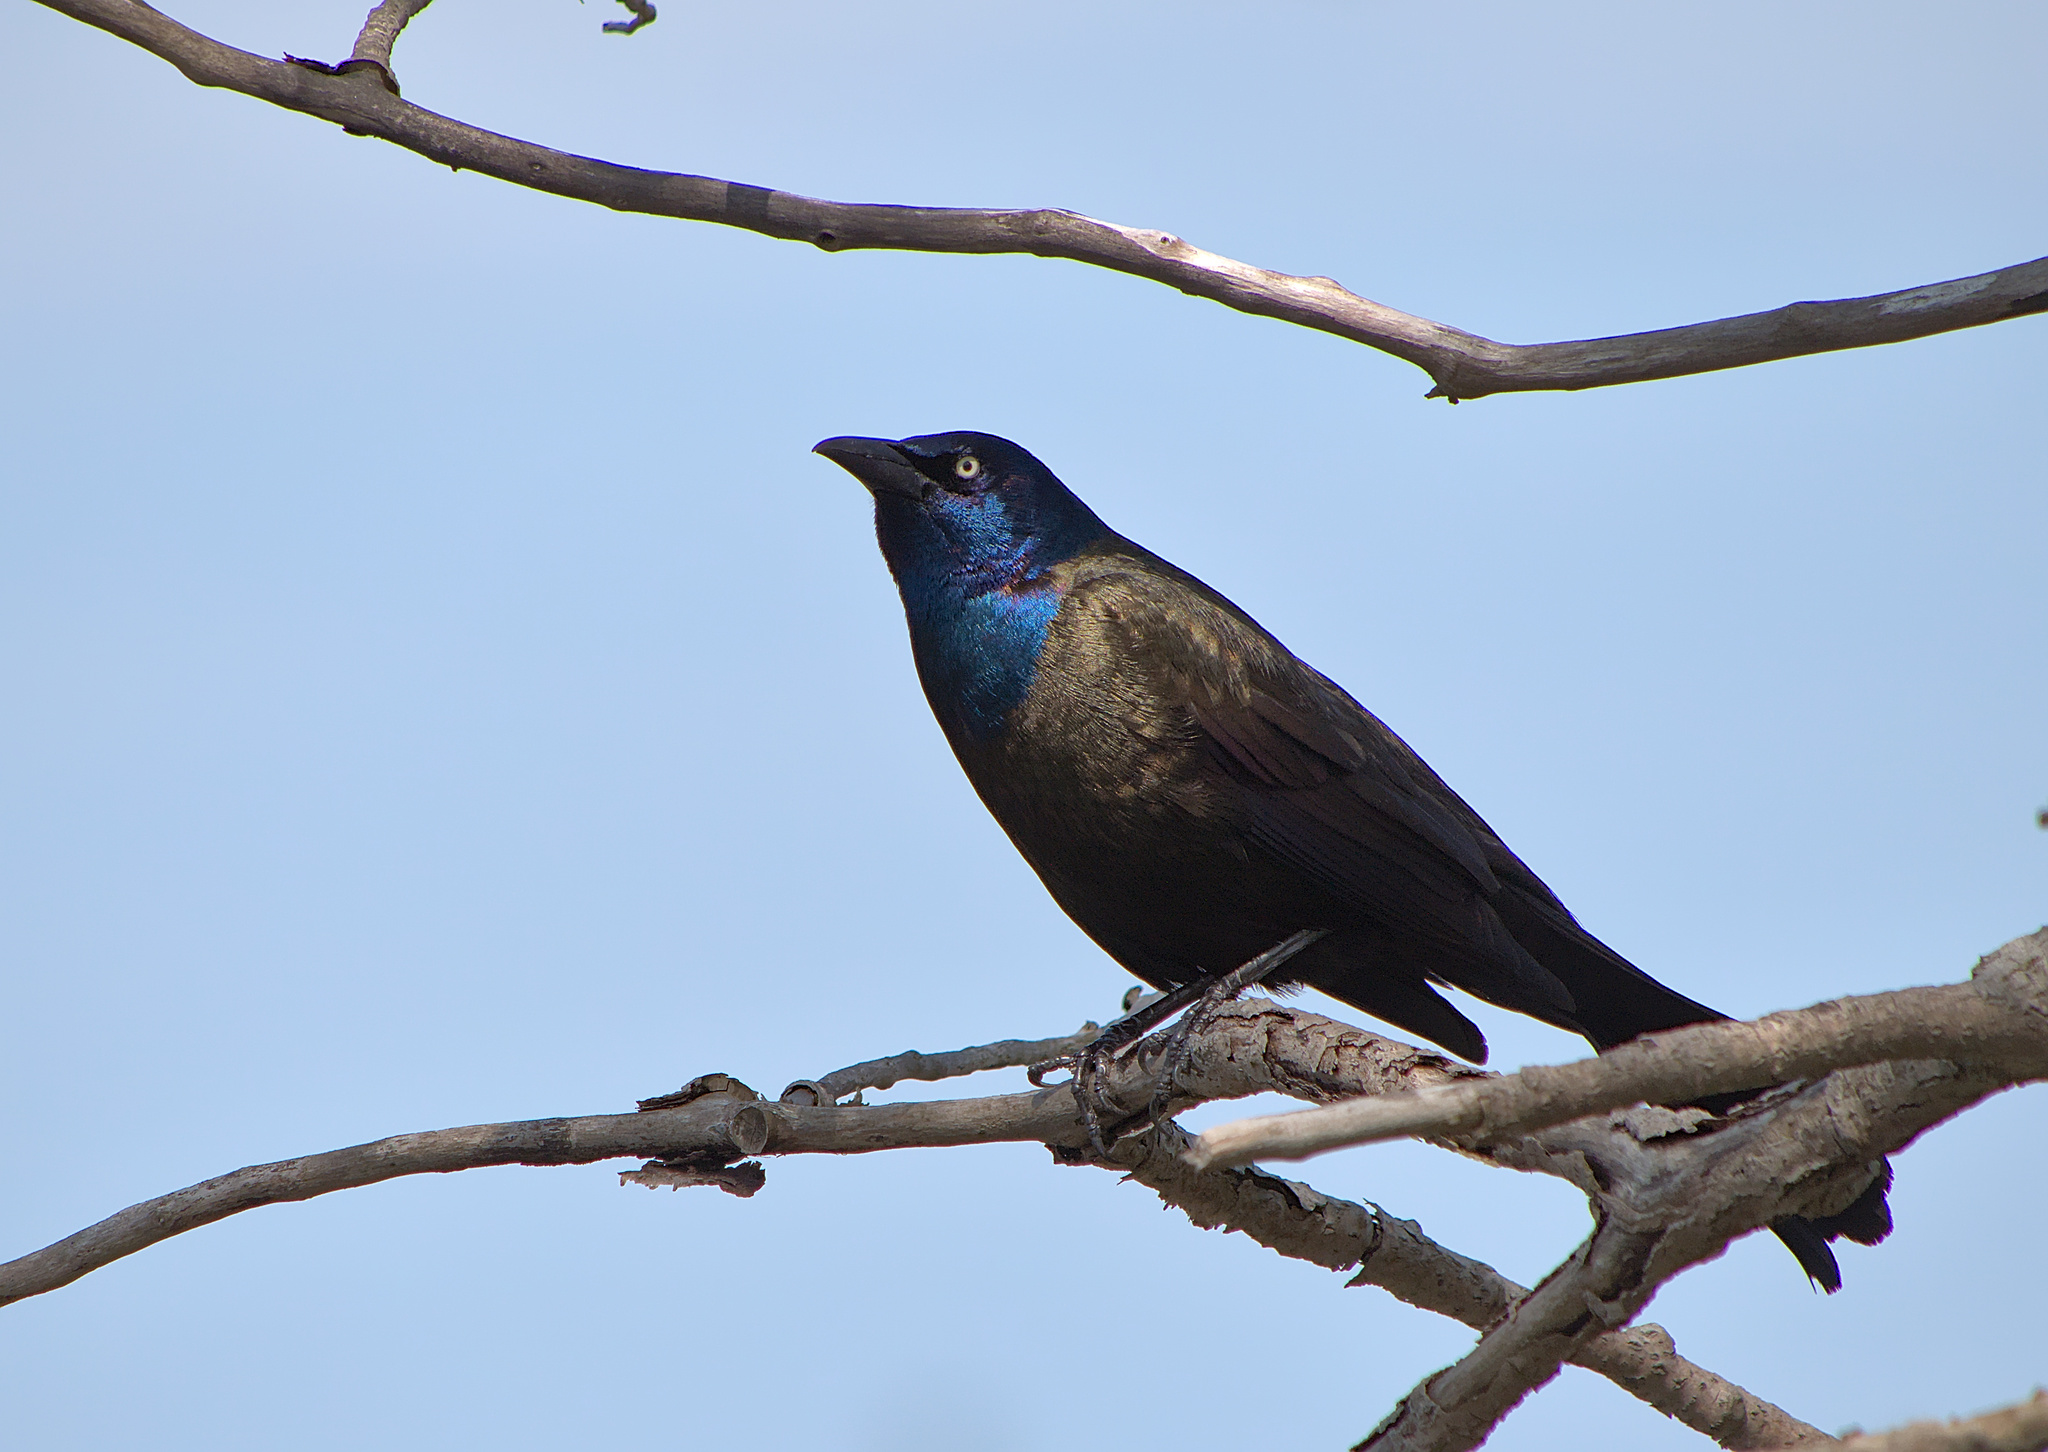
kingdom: Animalia
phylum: Chordata
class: Aves
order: Passeriformes
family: Icteridae
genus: Quiscalus
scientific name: Quiscalus quiscula
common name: Common grackle
